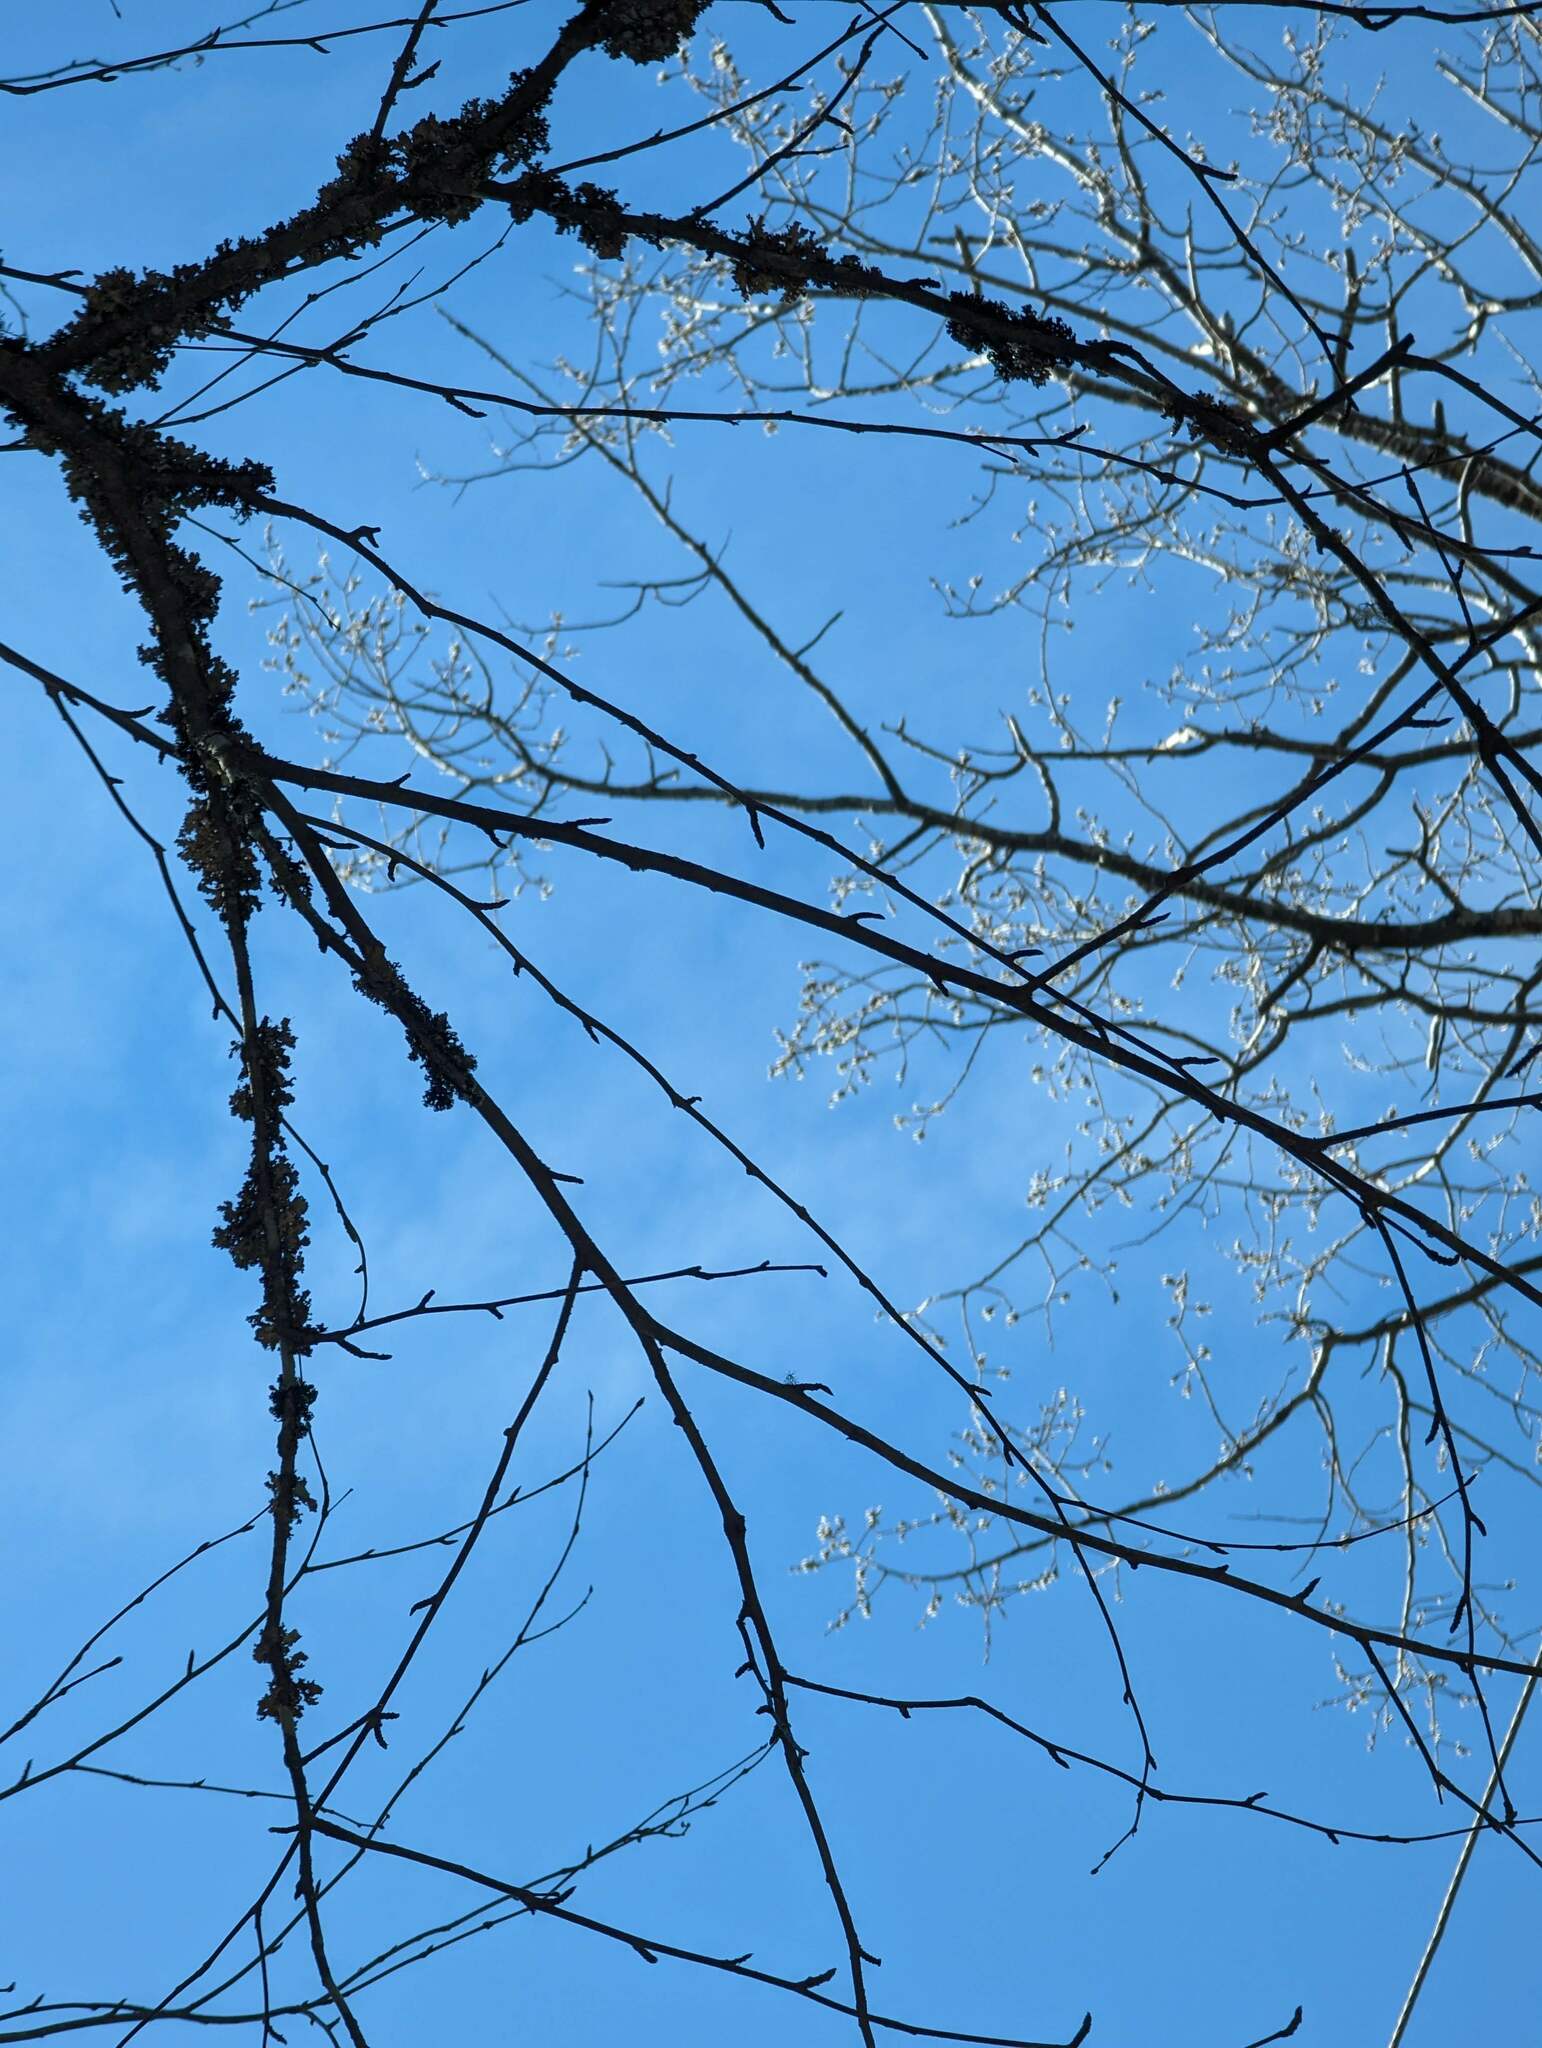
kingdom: Plantae
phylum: Tracheophyta
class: Magnoliopsida
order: Fagales
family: Betulaceae
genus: Betula
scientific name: Betula papyrifera
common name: Paper birch
